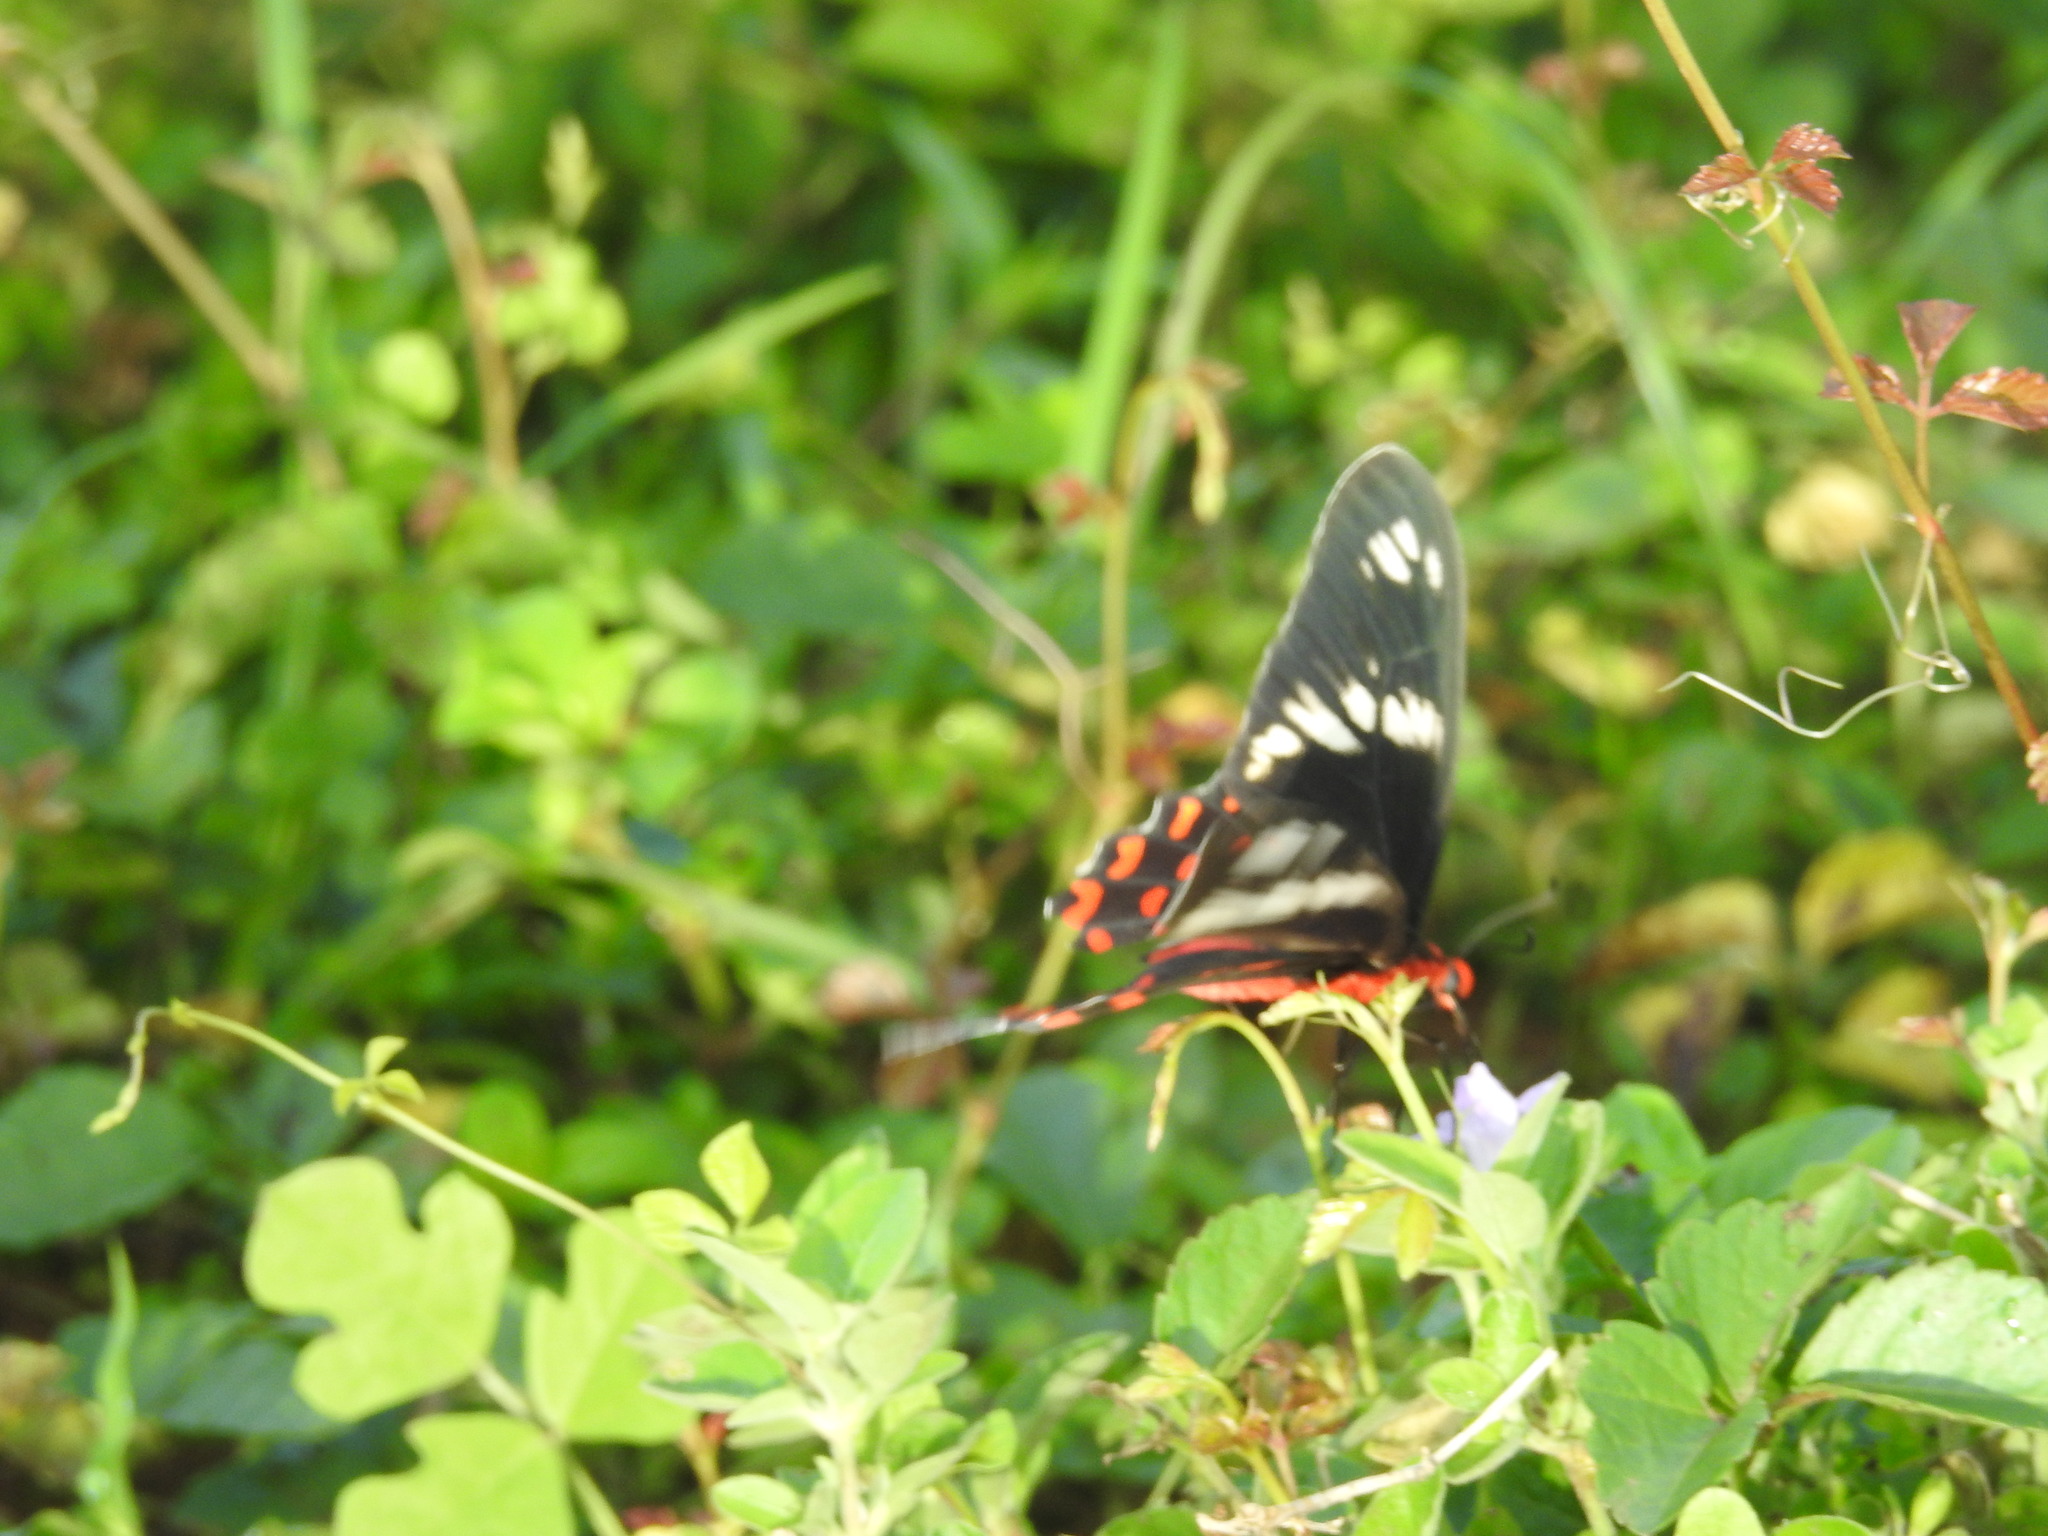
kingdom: Animalia
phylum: Arthropoda
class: Insecta
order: Lepidoptera
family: Papilionidae
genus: Pachliopta
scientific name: Pachliopta hector
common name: Crimson rose
